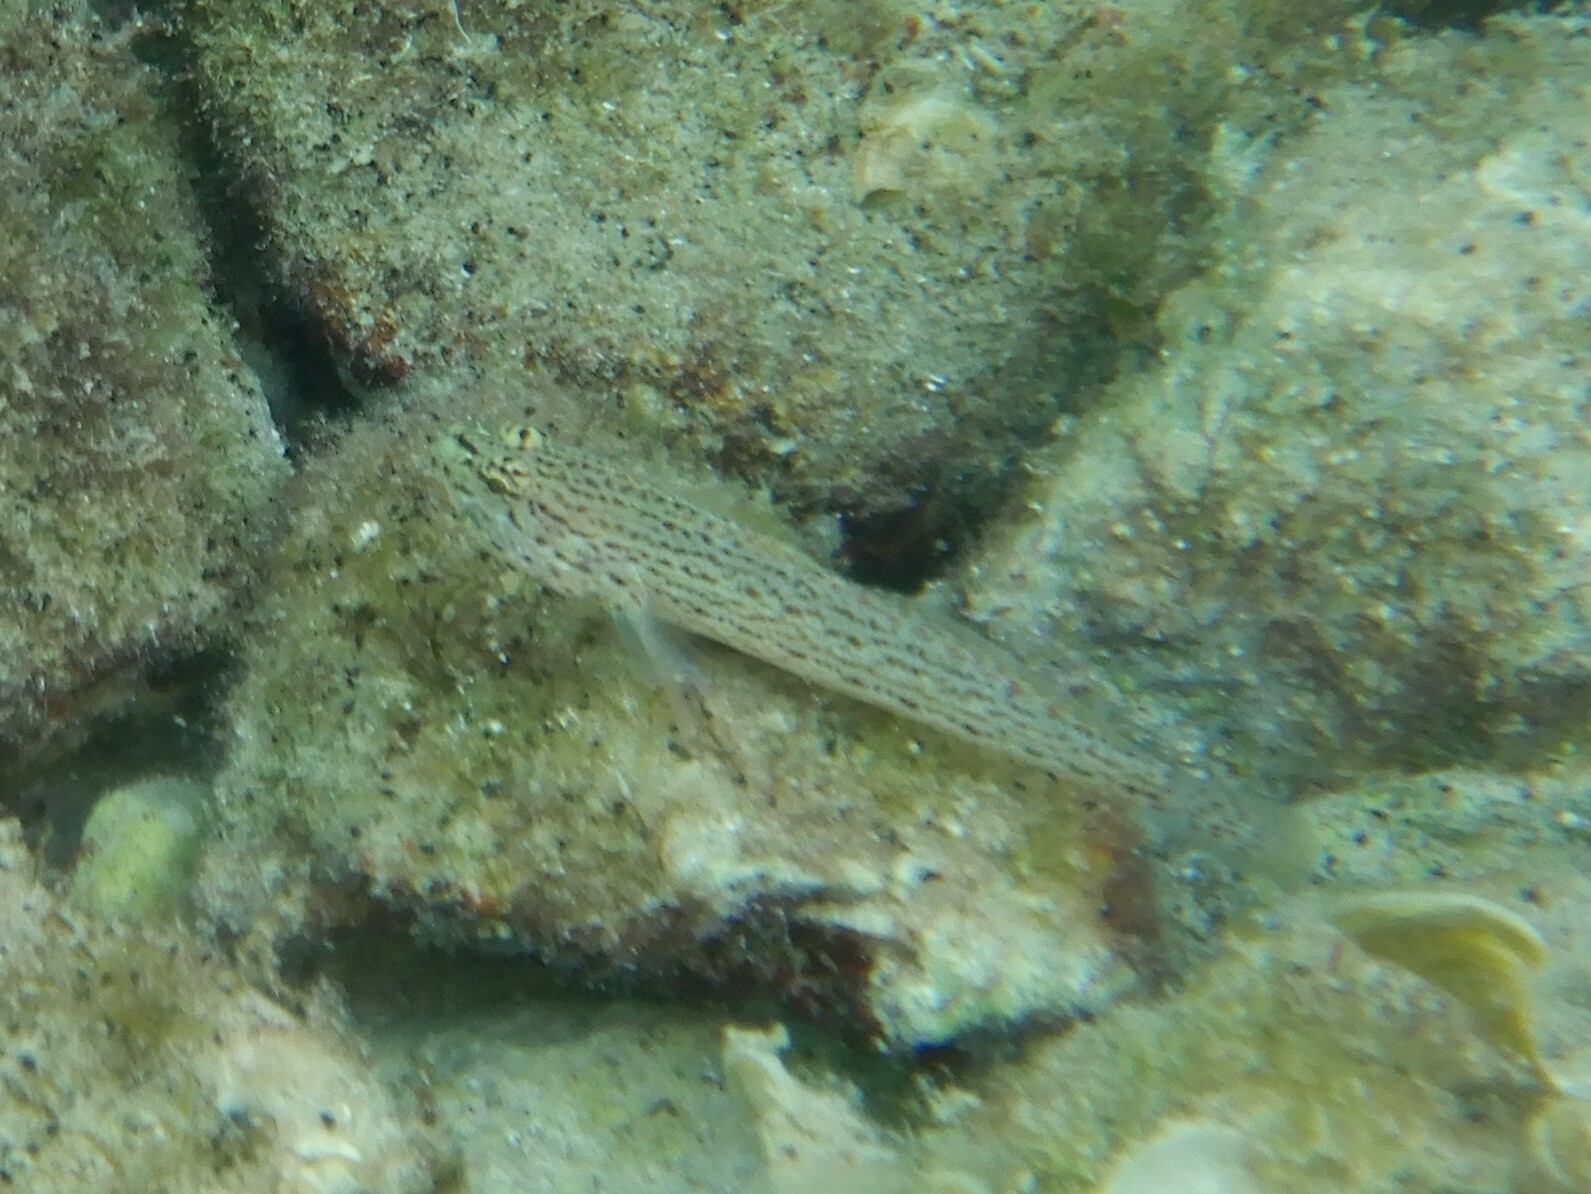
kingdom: Animalia
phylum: Chordata
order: Perciformes
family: Gobiidae
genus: Gobius
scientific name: Gobius fallax
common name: Sarato's goby
